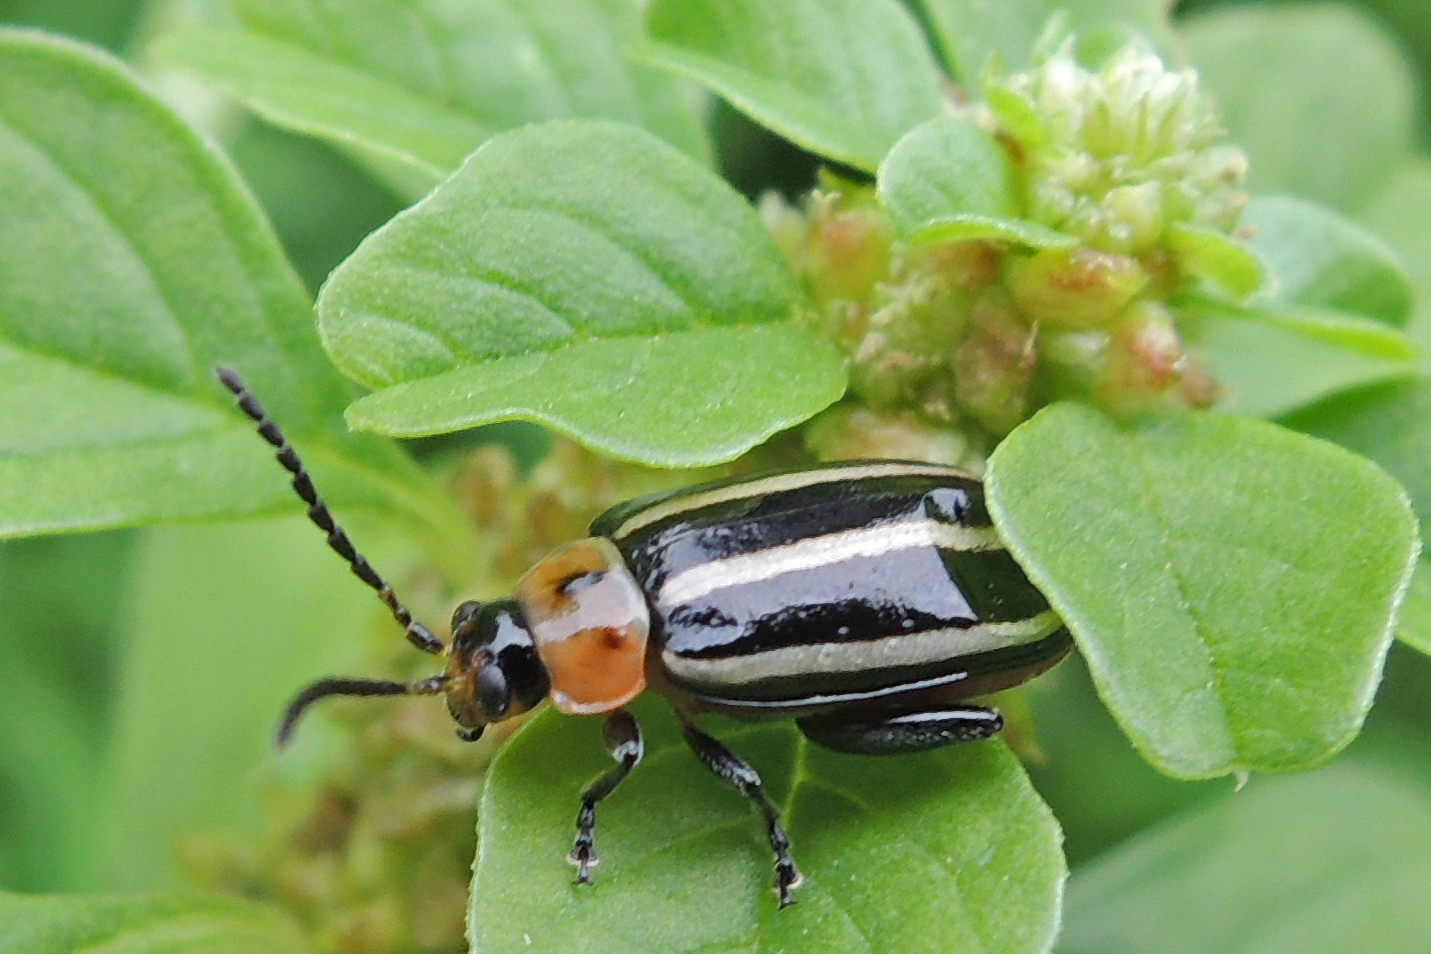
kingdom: Animalia
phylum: Arthropoda
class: Insecta
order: Coleoptera
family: Chrysomelidae
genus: Disonycha
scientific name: Disonycha glabrata
